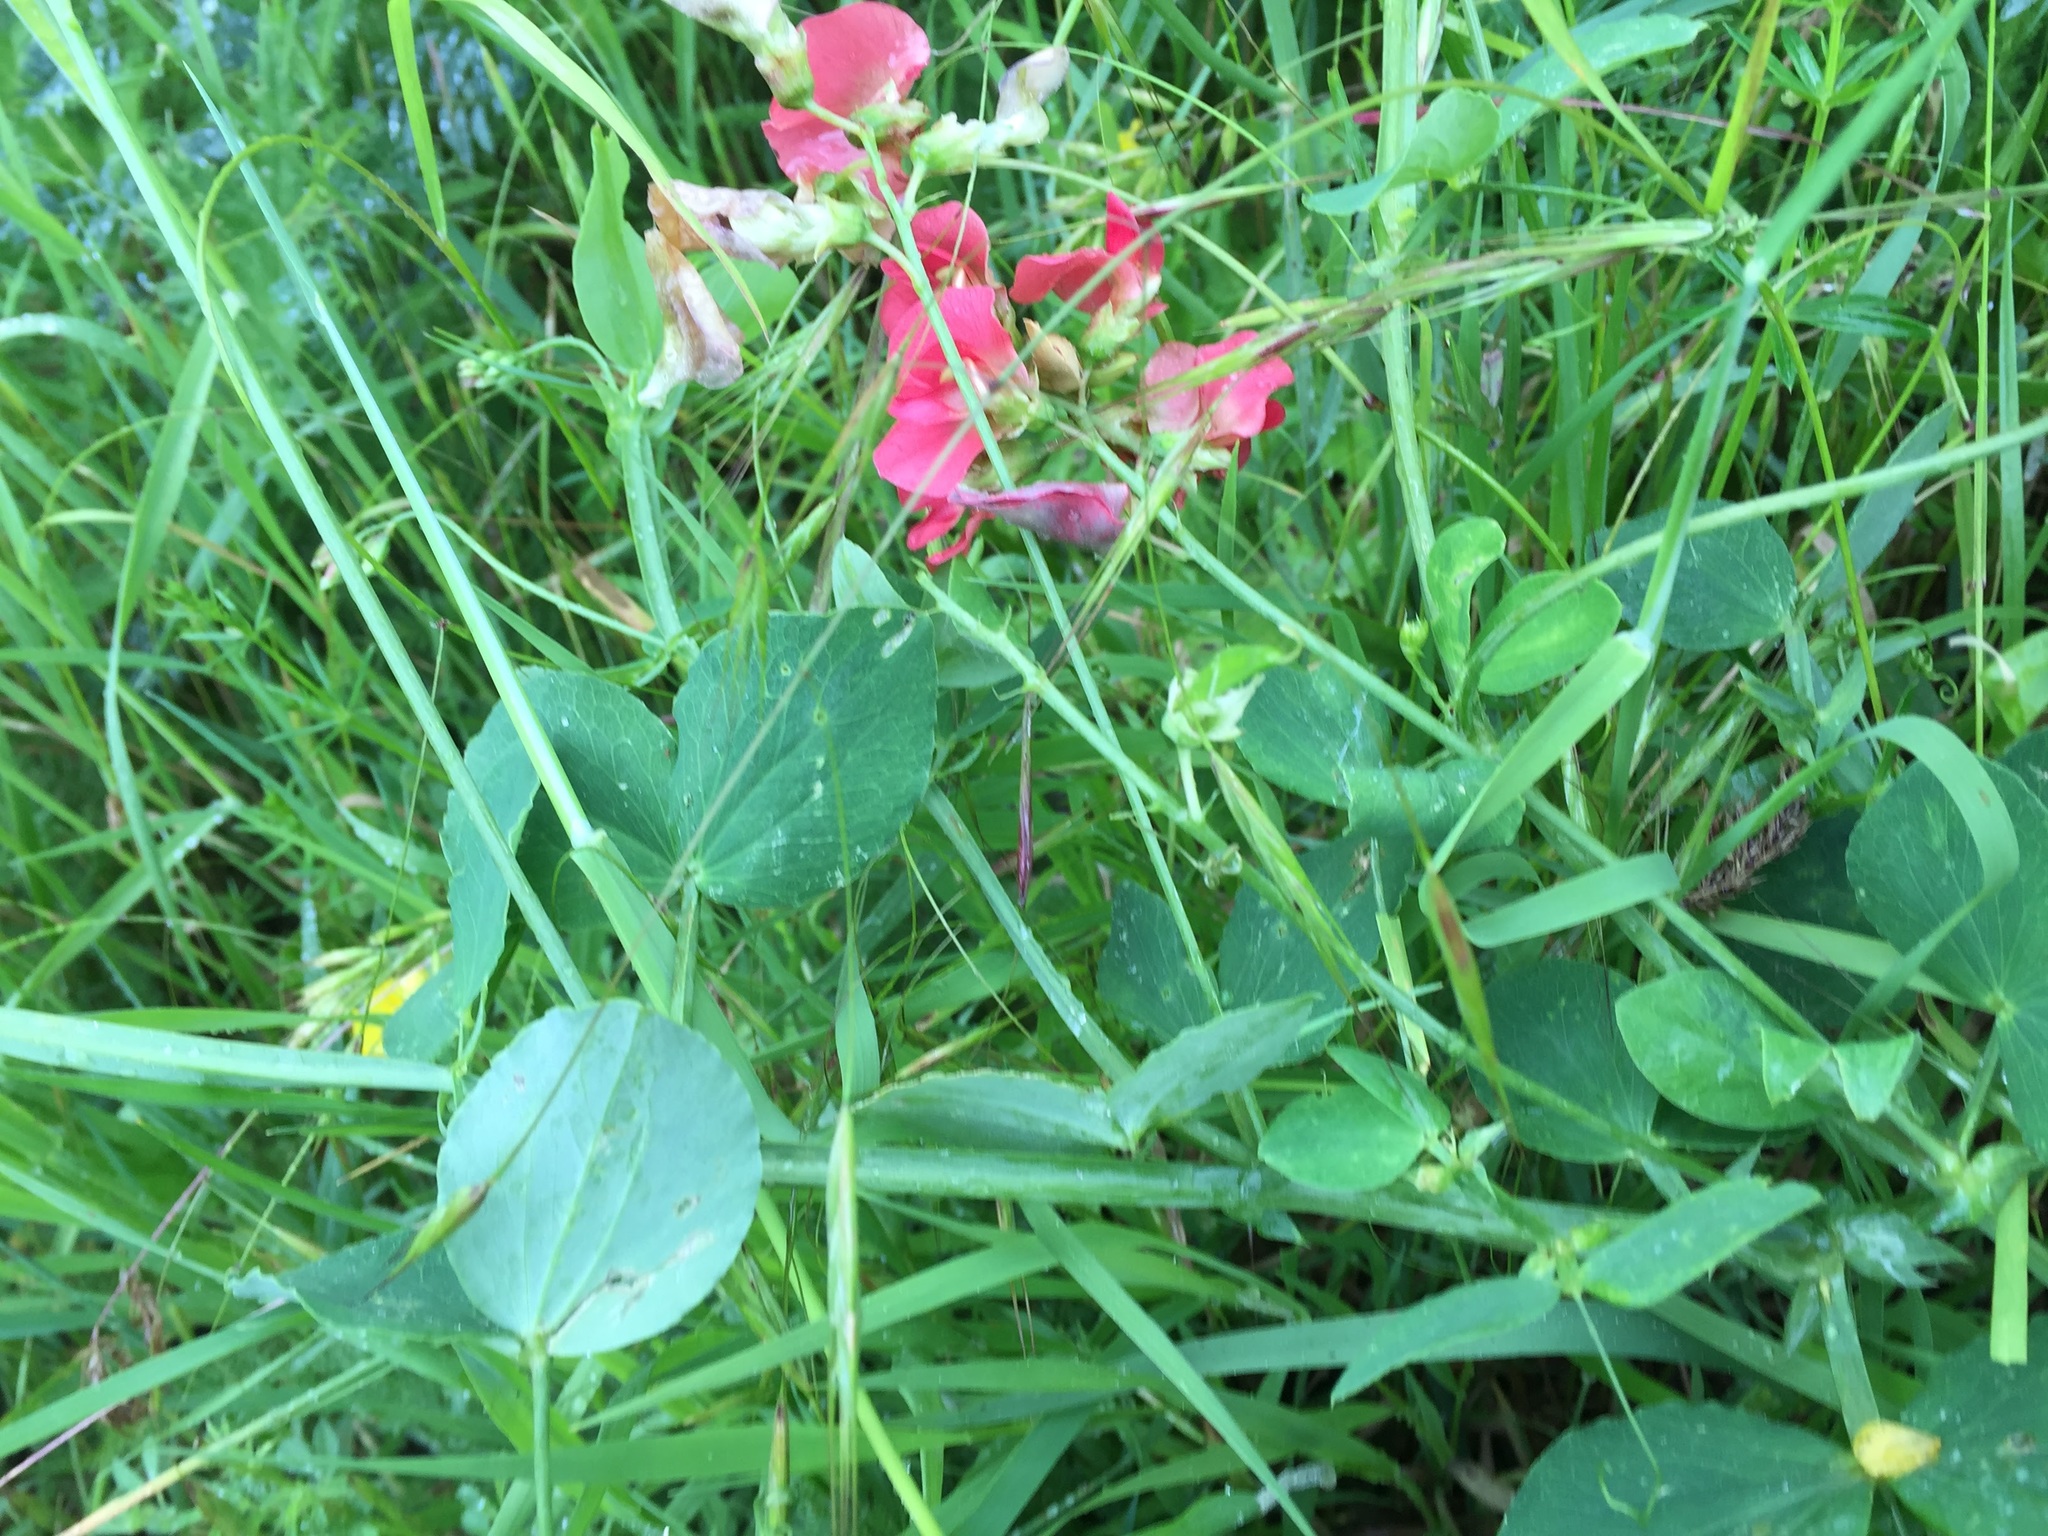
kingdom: Plantae
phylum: Tracheophyta
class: Magnoliopsida
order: Fabales
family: Fabaceae
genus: Lathyrus
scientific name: Lathyrus miniatus
